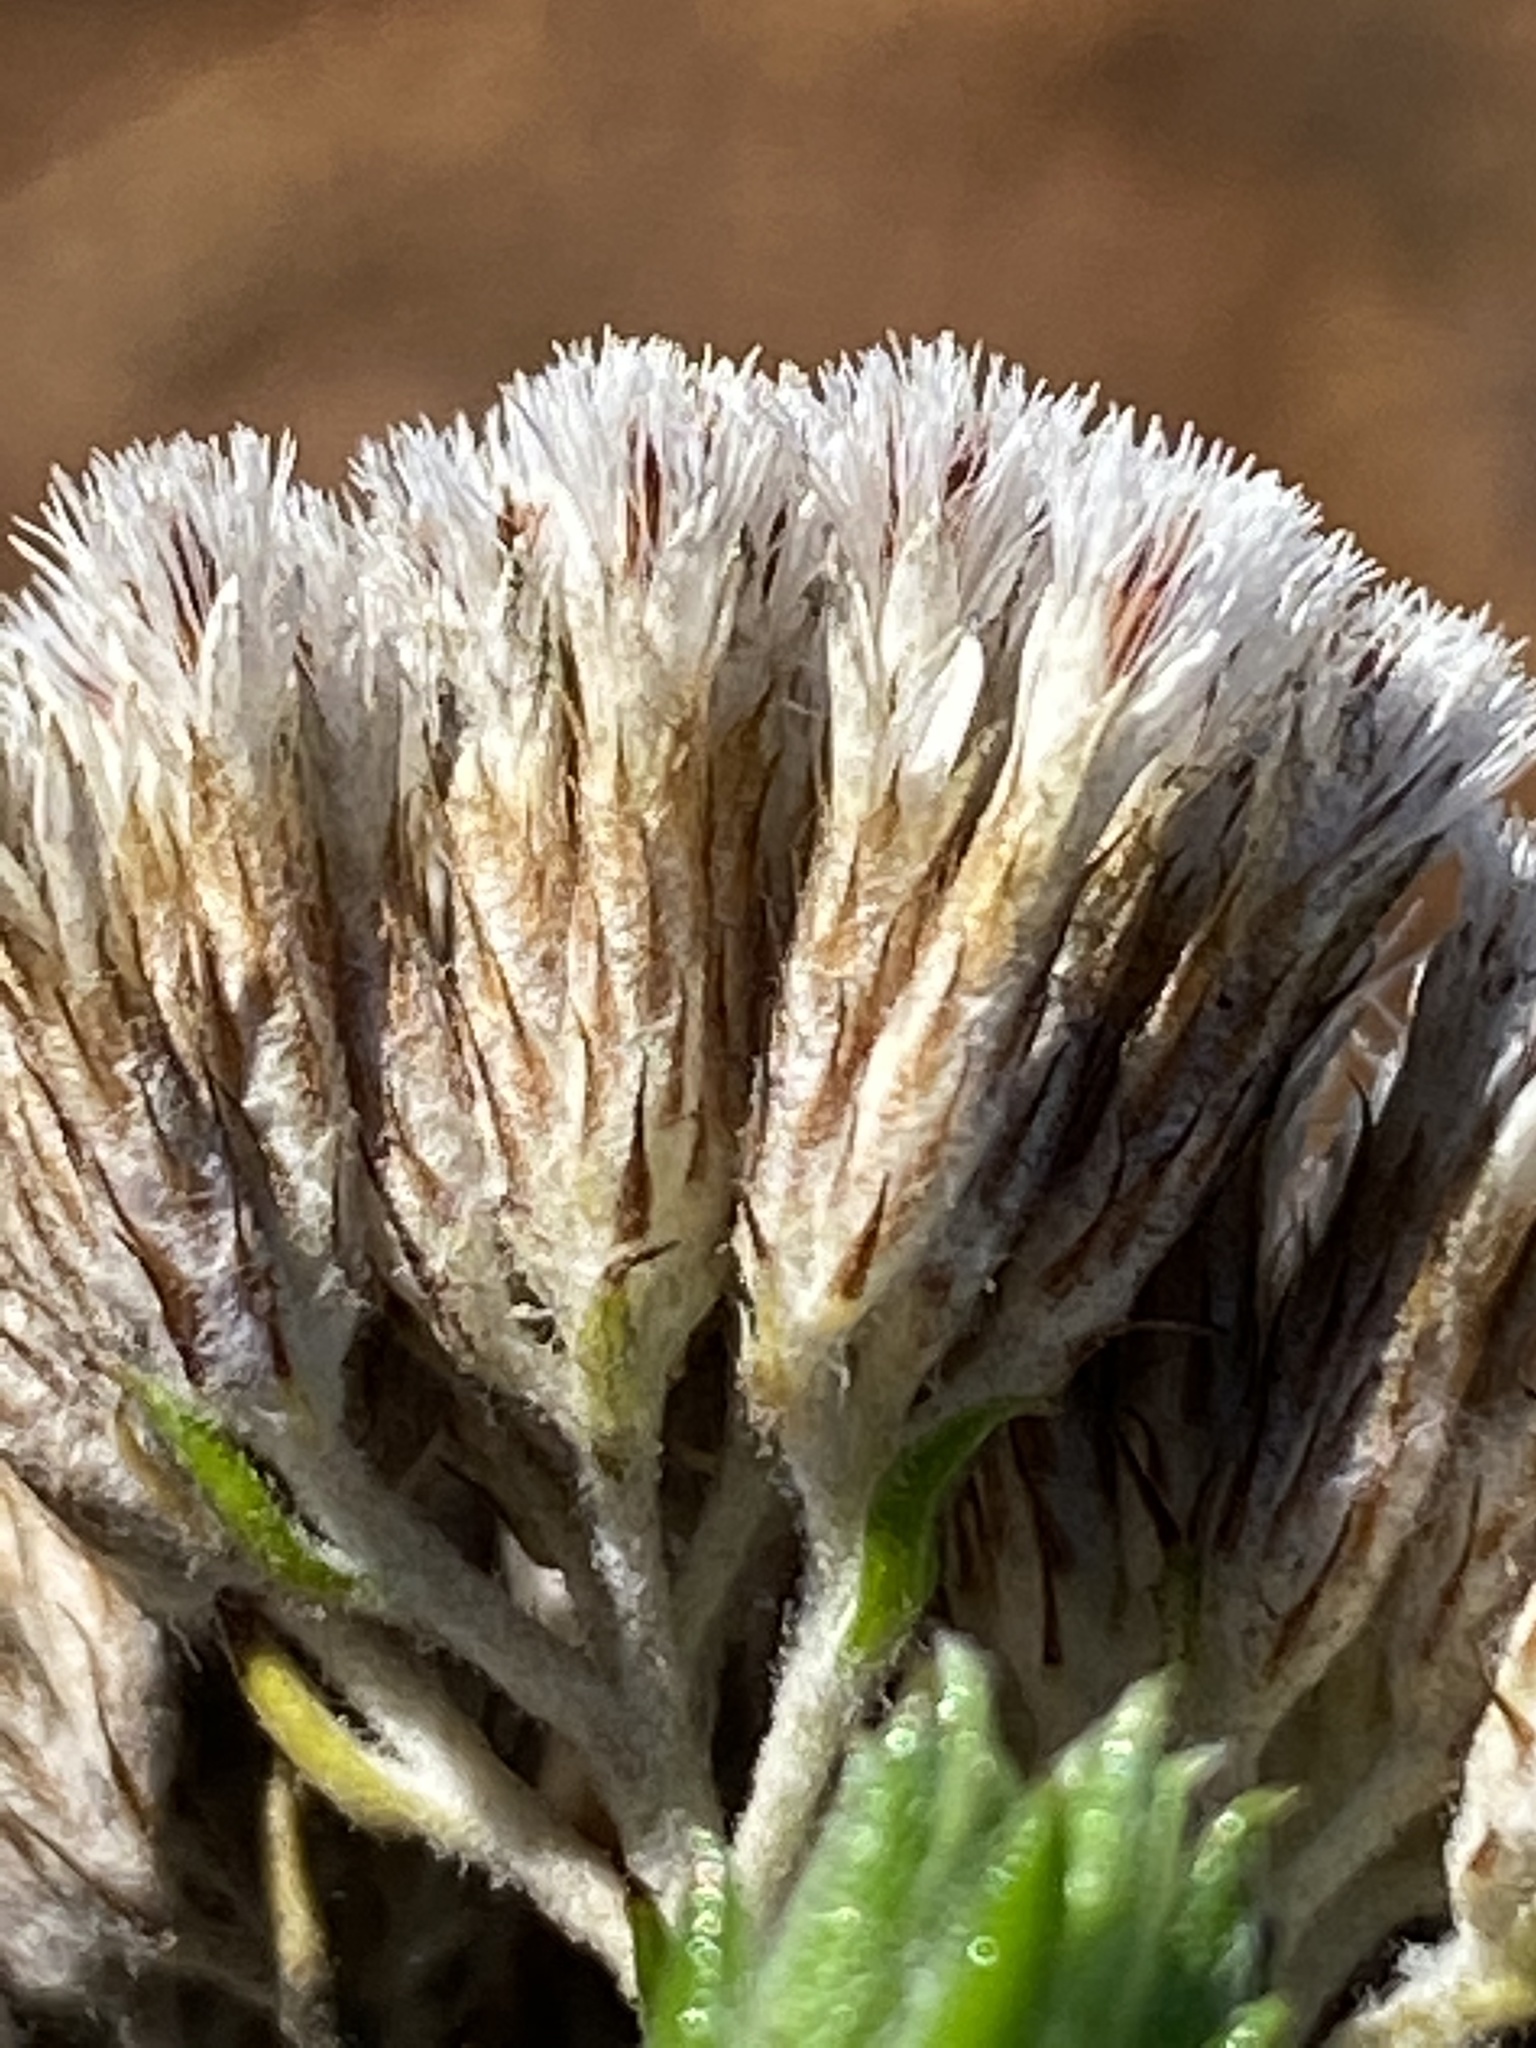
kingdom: Plantae
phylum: Tracheophyta
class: Magnoliopsida
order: Asterales
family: Asteraceae
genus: Metalasia
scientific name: Metalasia pungens
